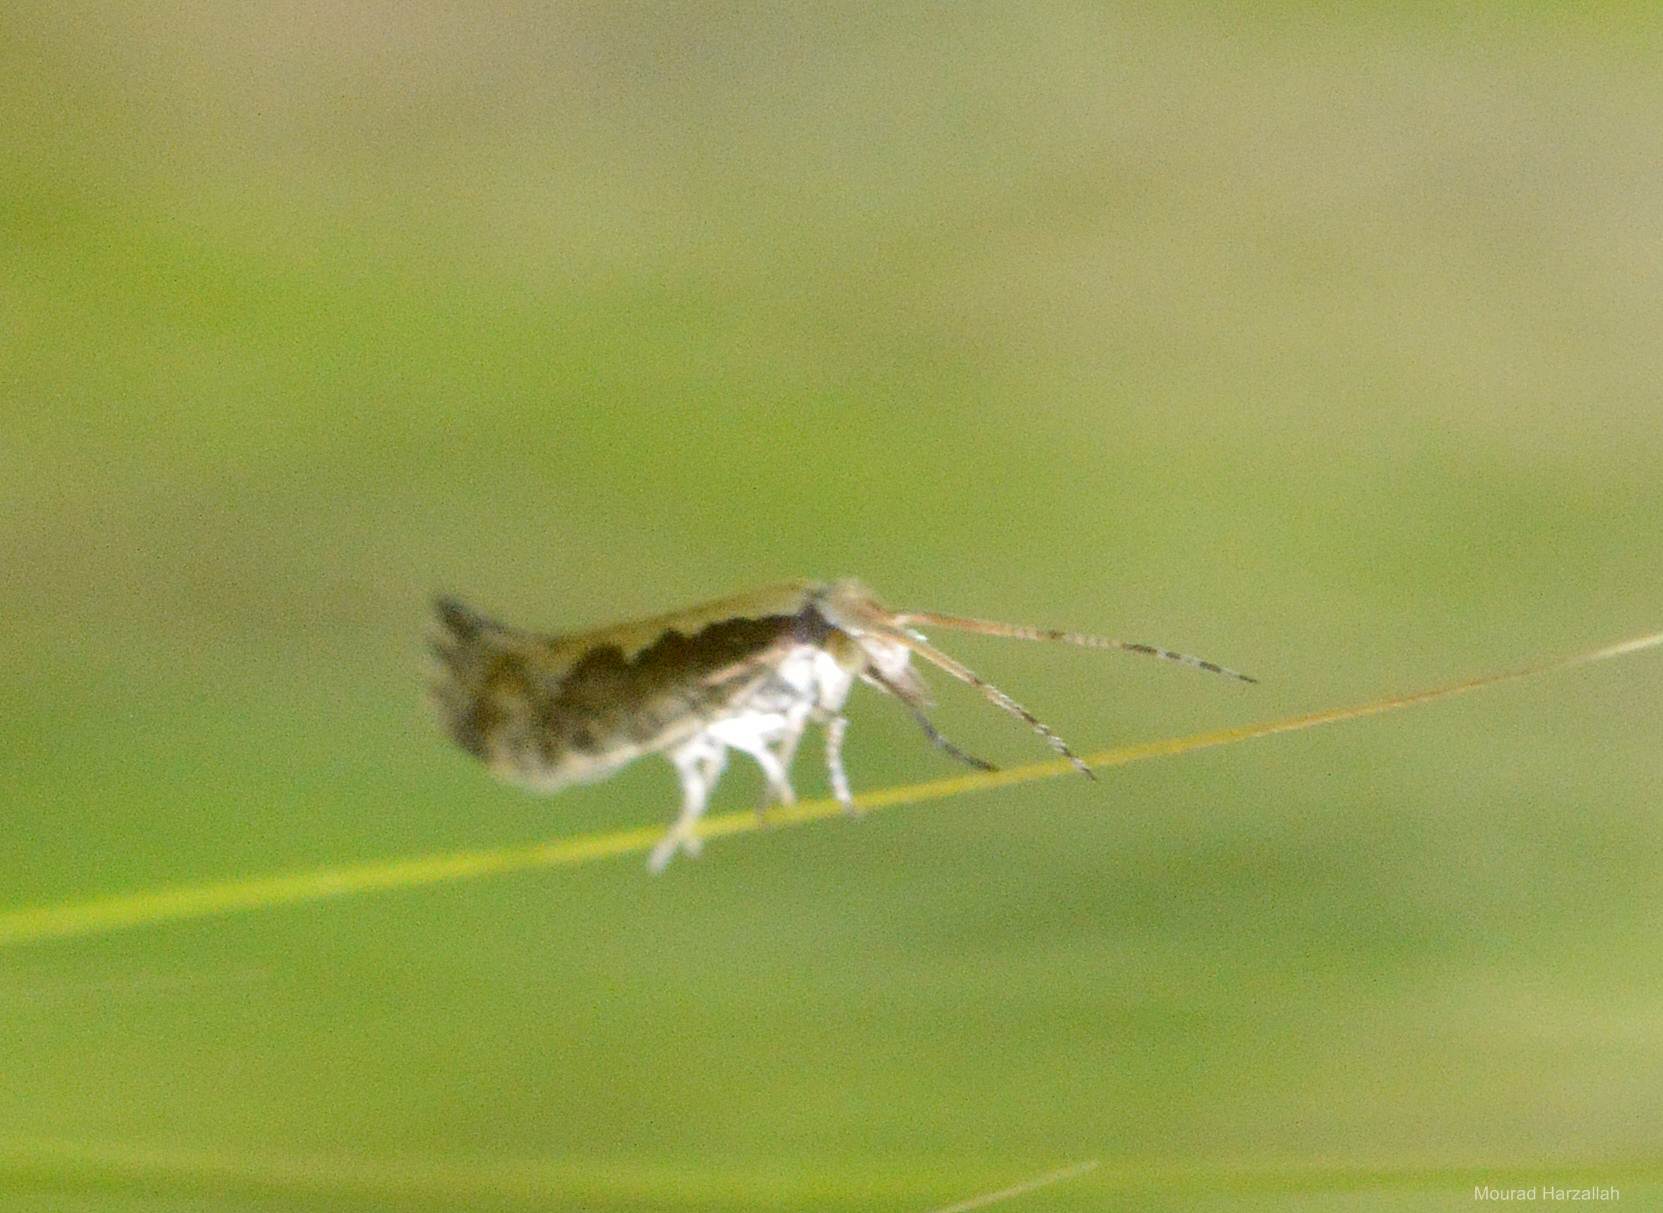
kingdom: Animalia
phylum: Arthropoda
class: Insecta
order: Lepidoptera
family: Plutellidae
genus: Plutella
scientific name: Plutella xylostella
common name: Diamond-back moth
